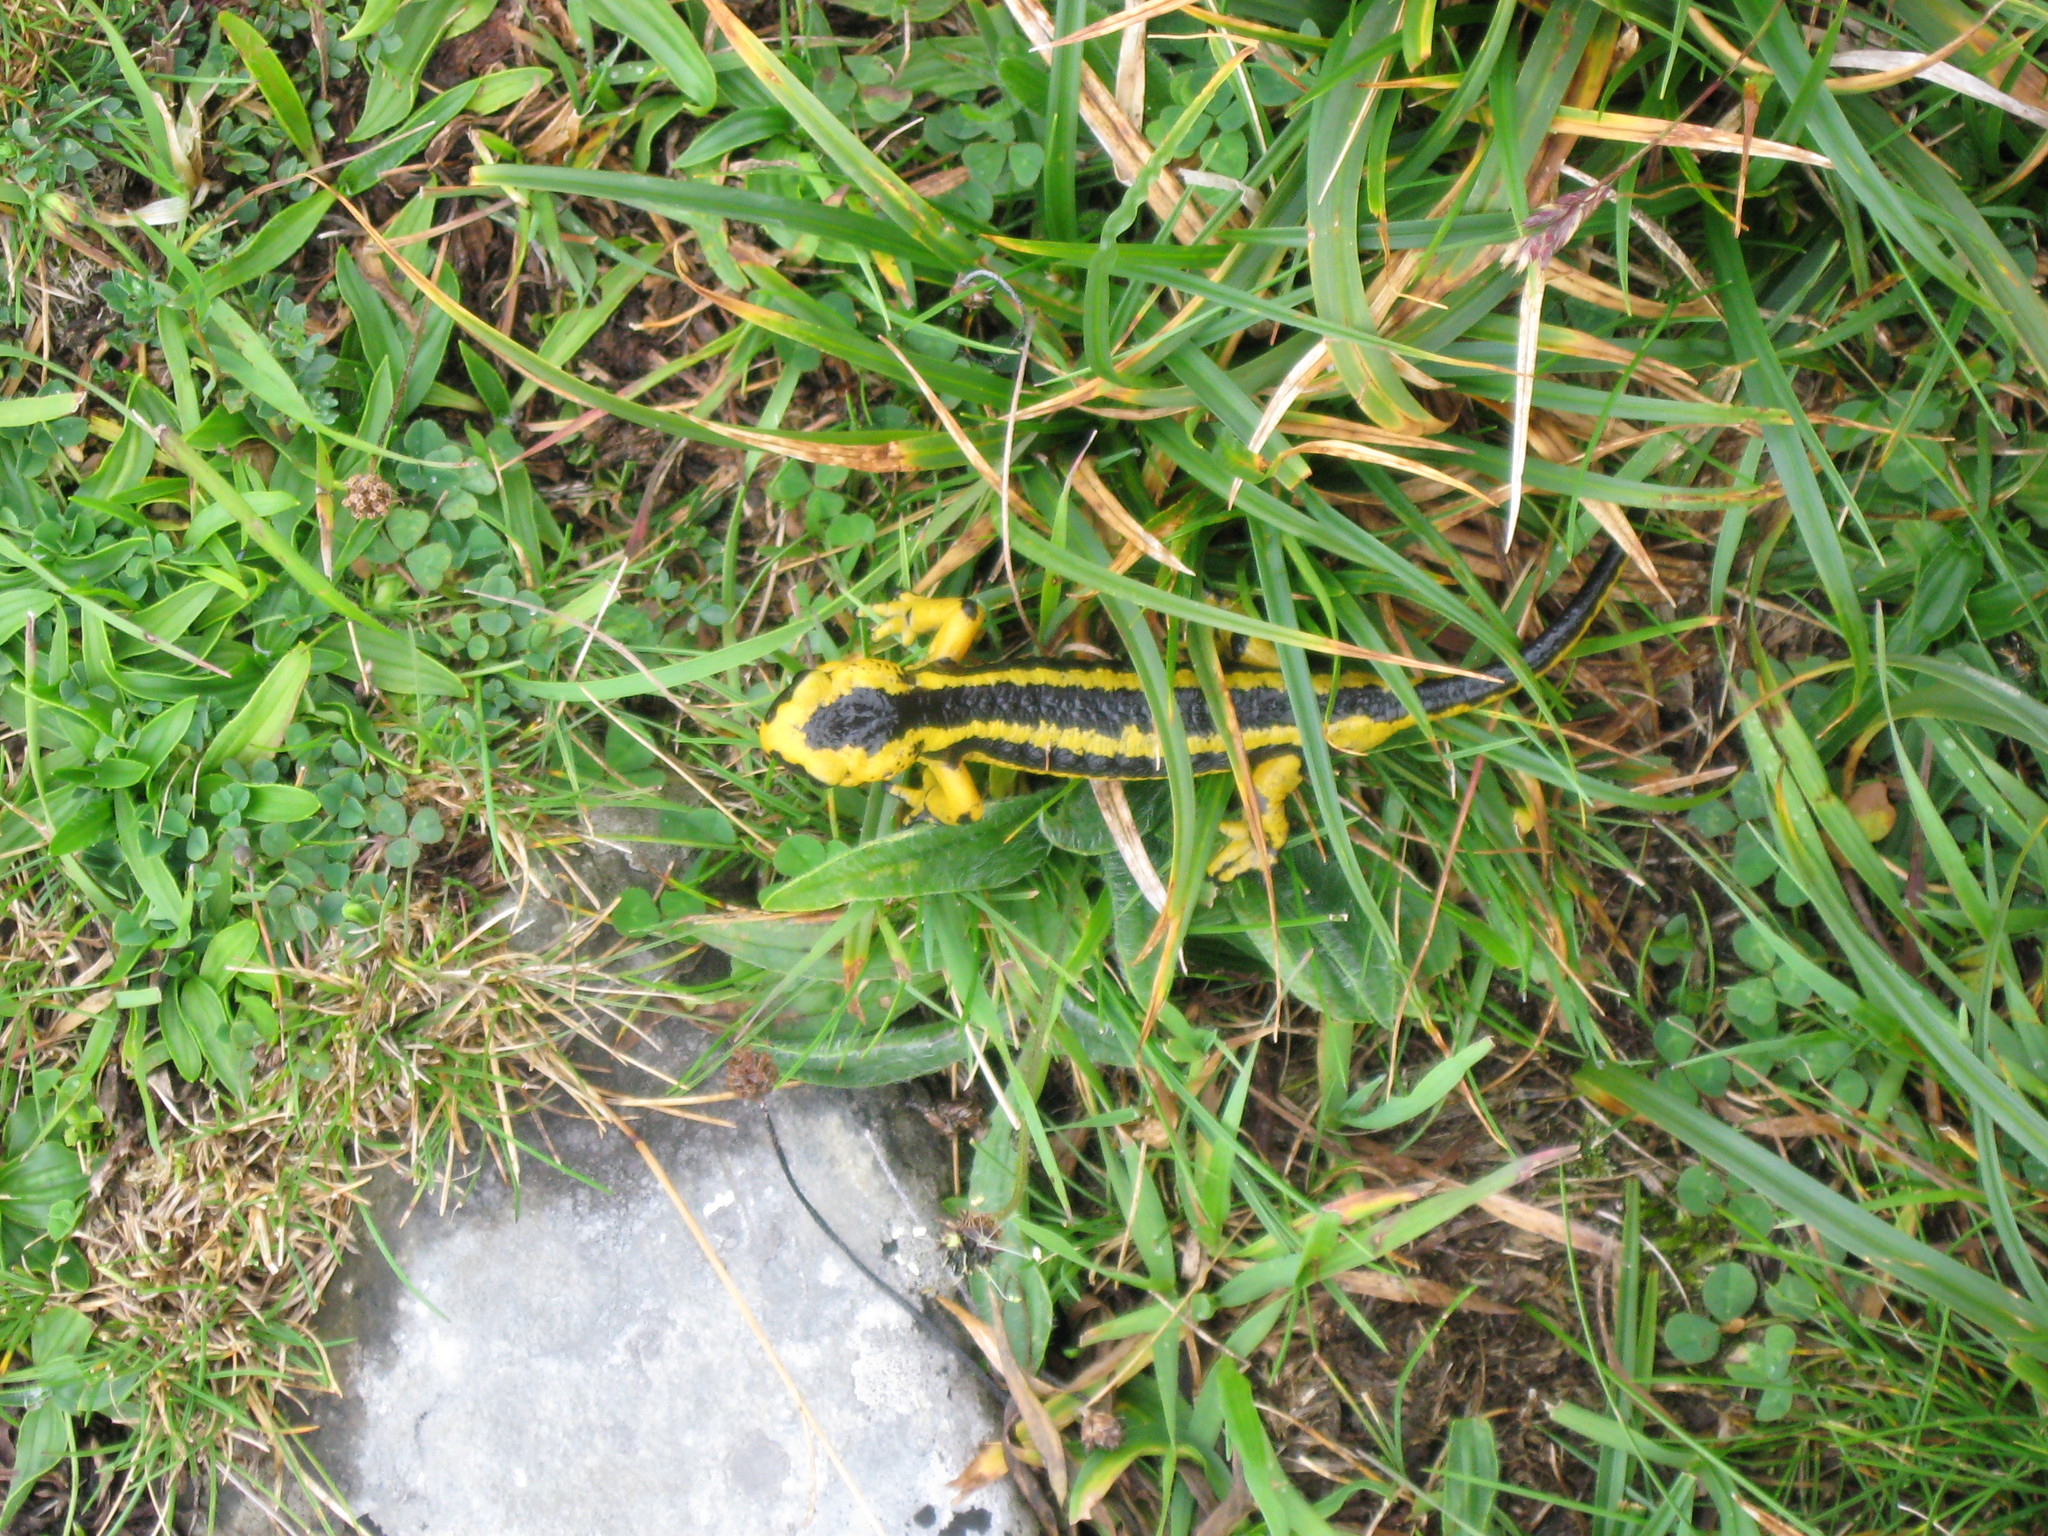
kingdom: Animalia
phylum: Chordata
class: Amphibia
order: Caudata
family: Salamandridae
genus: Salamandra
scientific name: Salamandra salamandra
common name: Fire salamander
